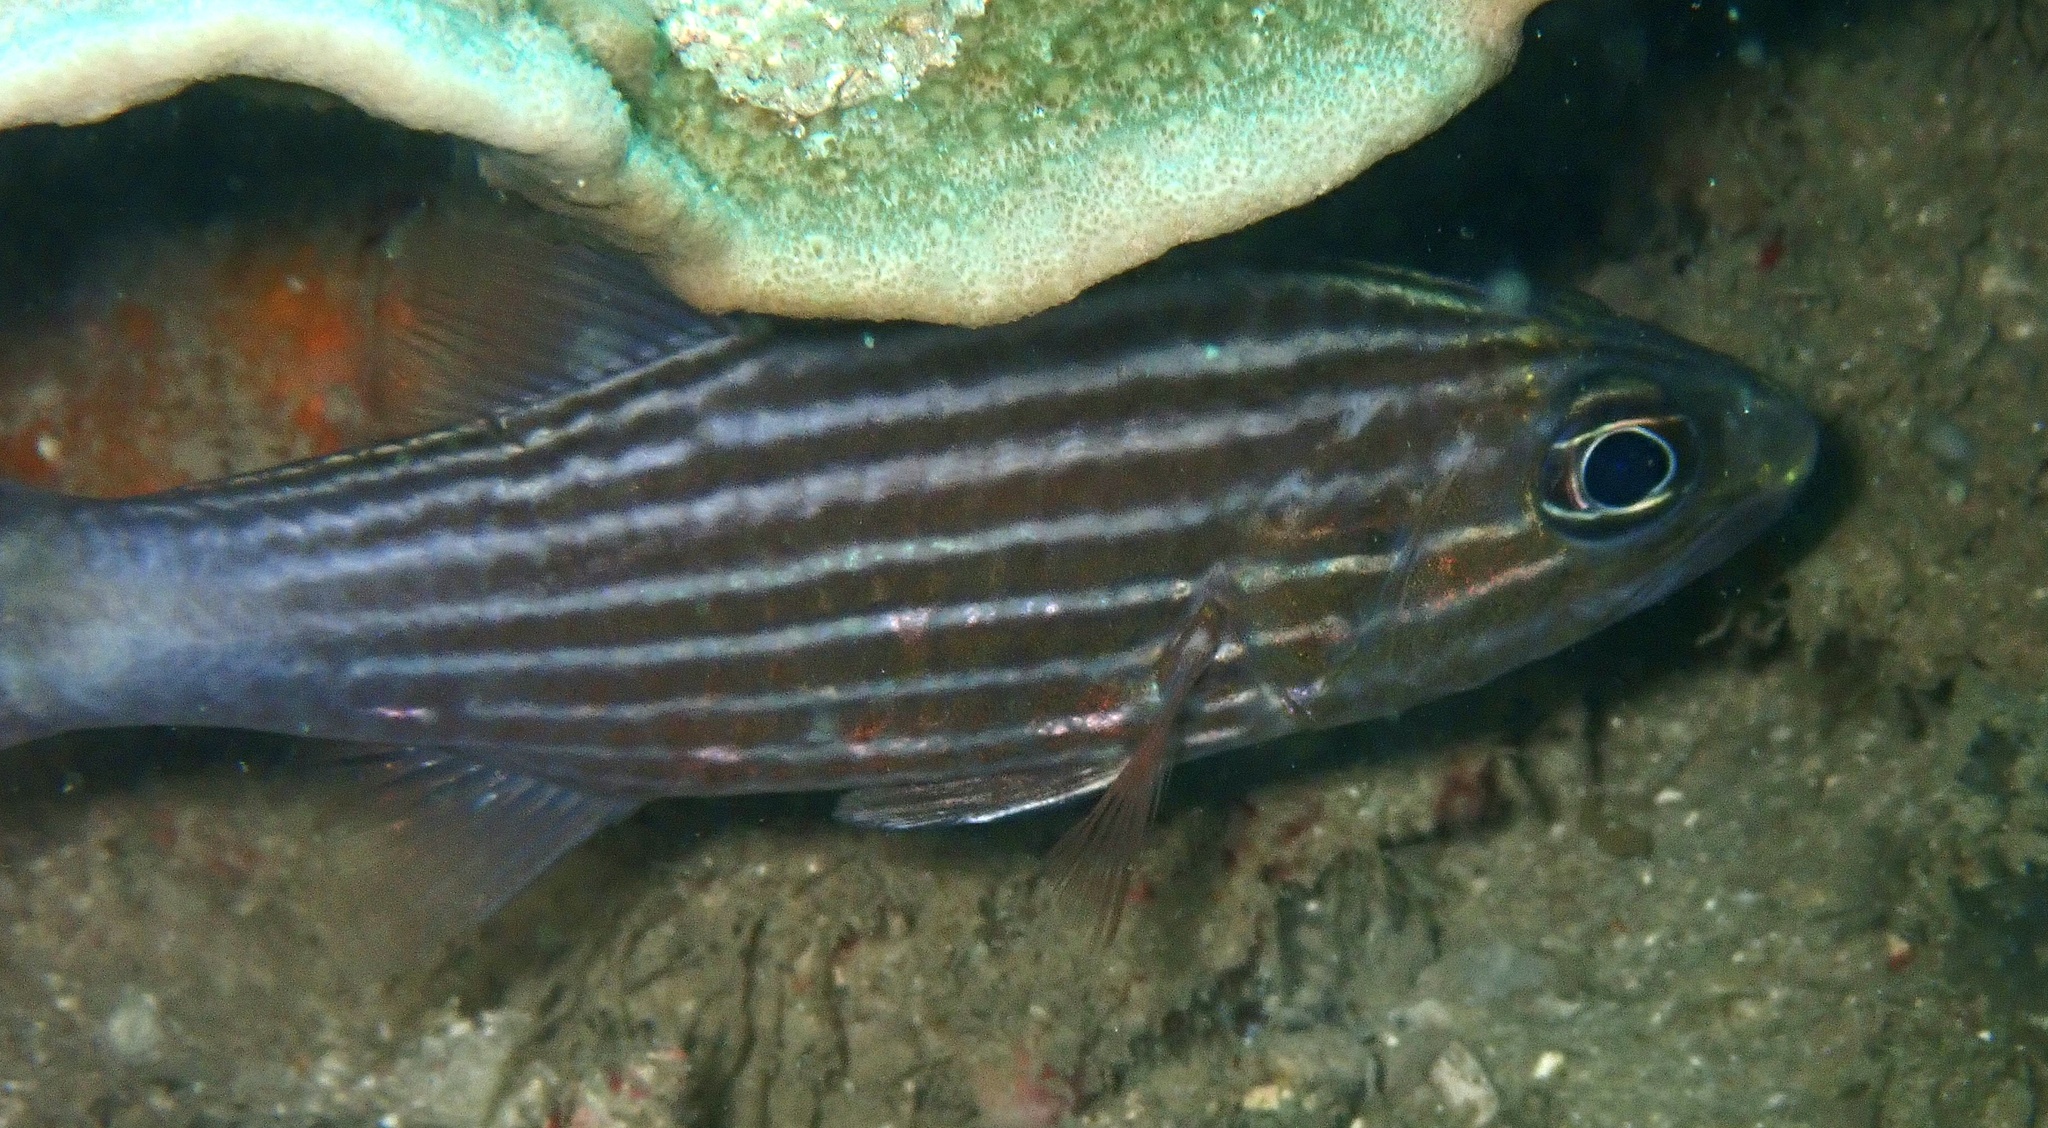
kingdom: Animalia
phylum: Chordata
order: Perciformes
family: Apogonidae
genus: Cheilodipterus
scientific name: Cheilodipterus macrodon
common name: Eight-lined cardinalfish
